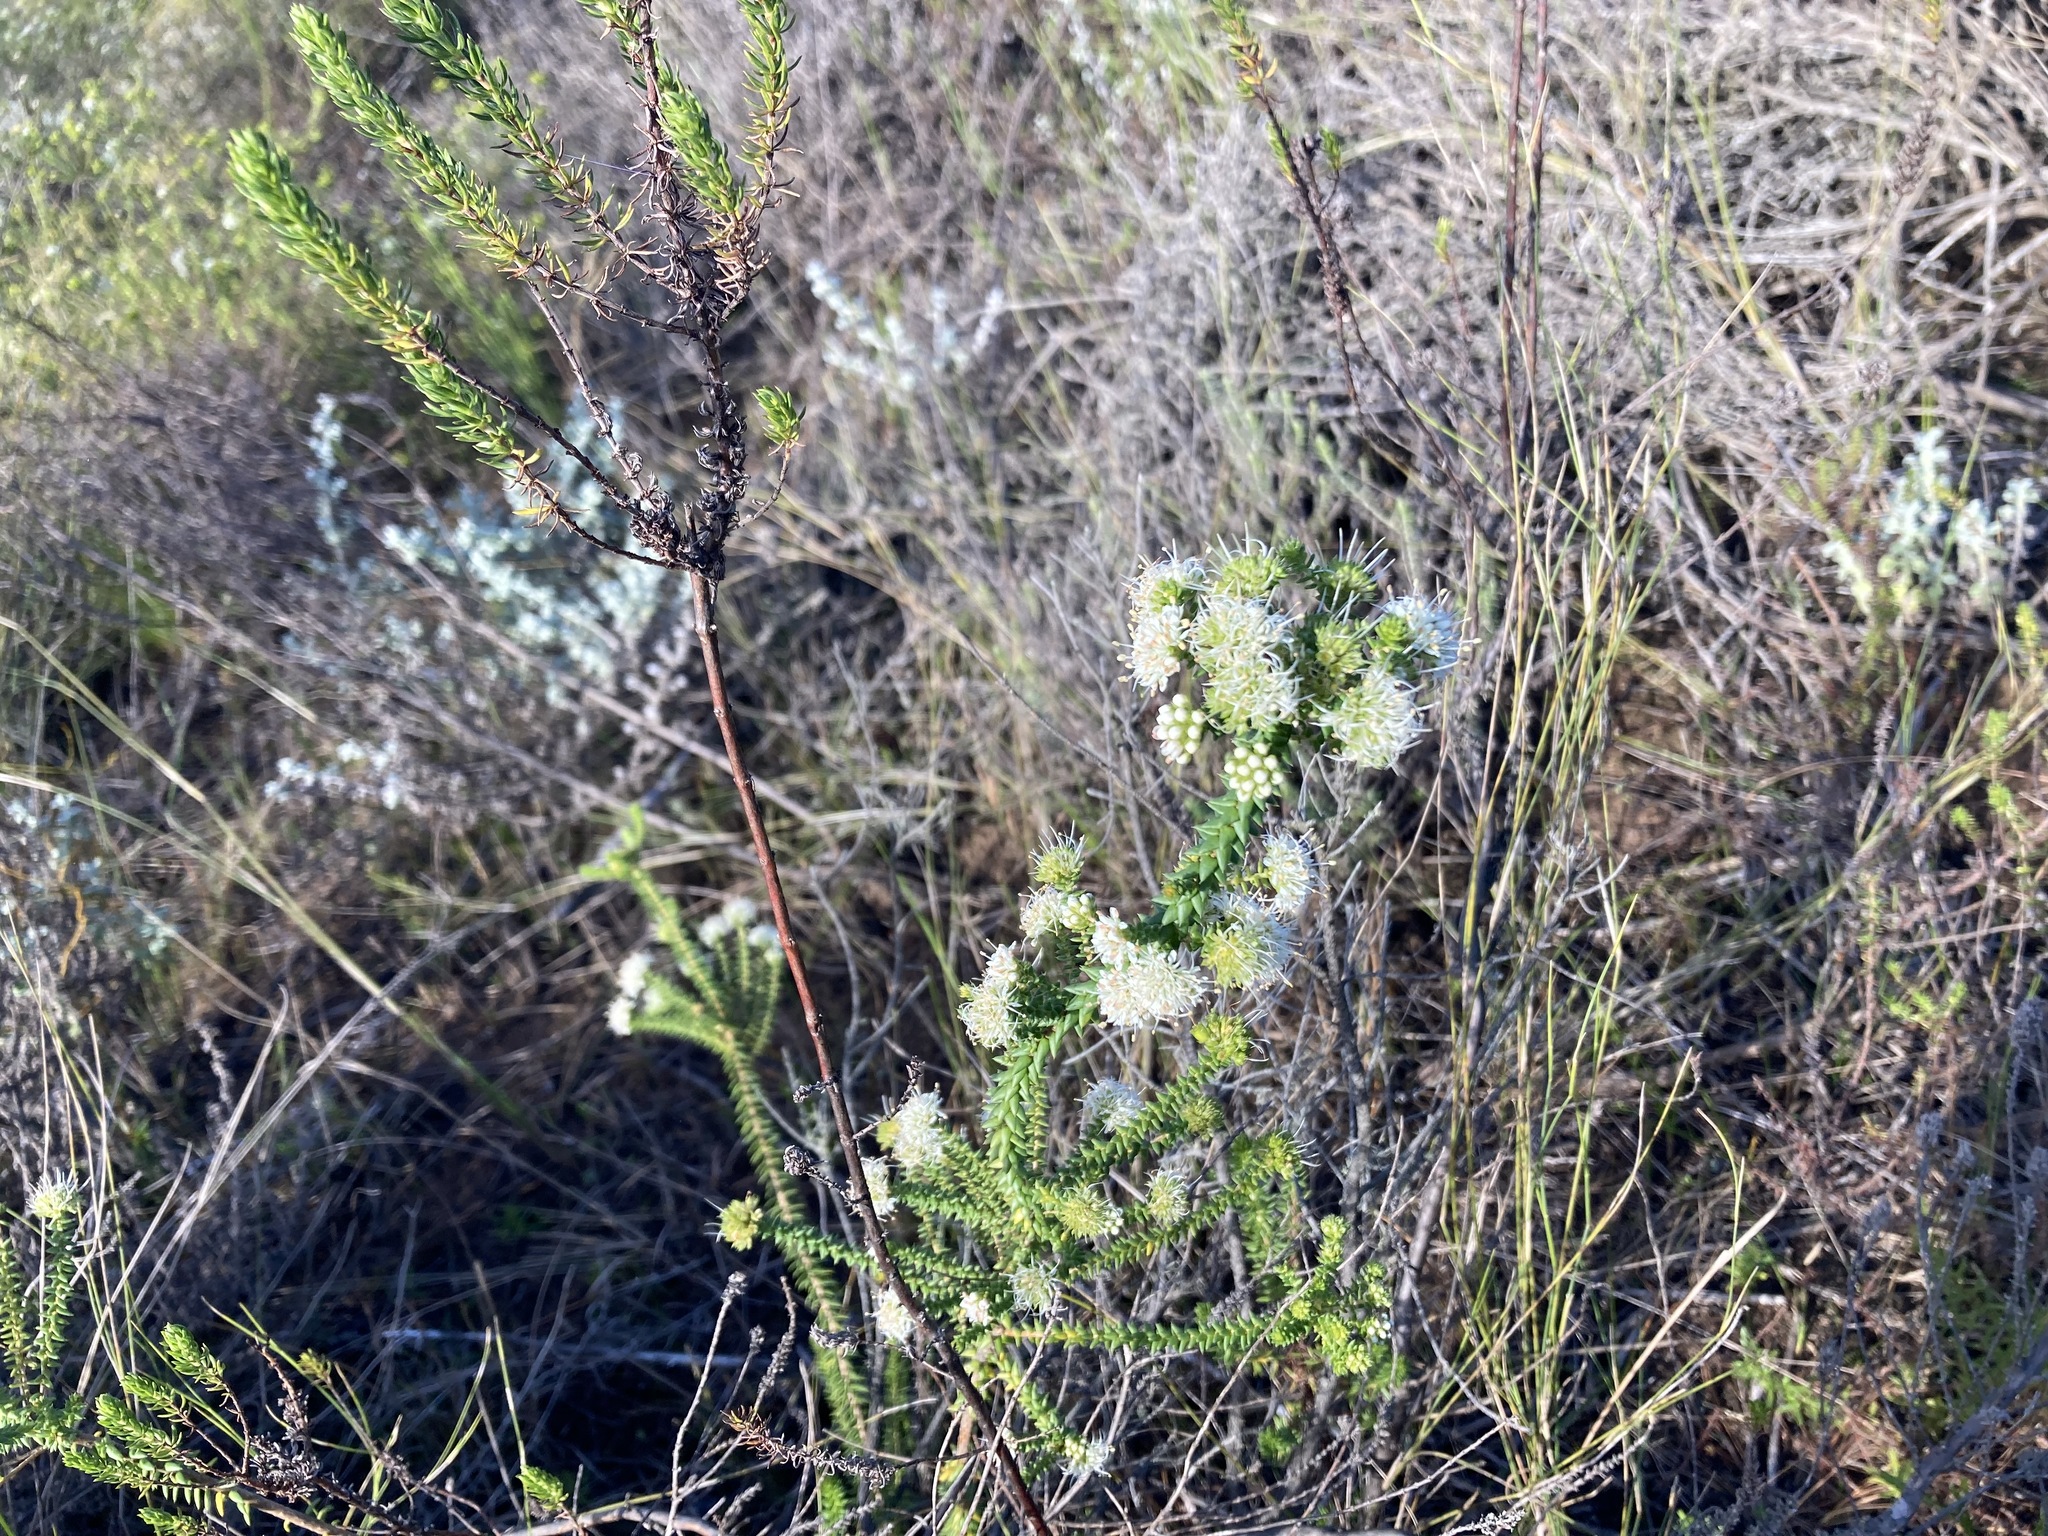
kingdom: Plantae
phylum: Tracheophyta
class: Magnoliopsida
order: Sapindales
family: Rutaceae
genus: Agathosma
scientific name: Agathosma apiculata
